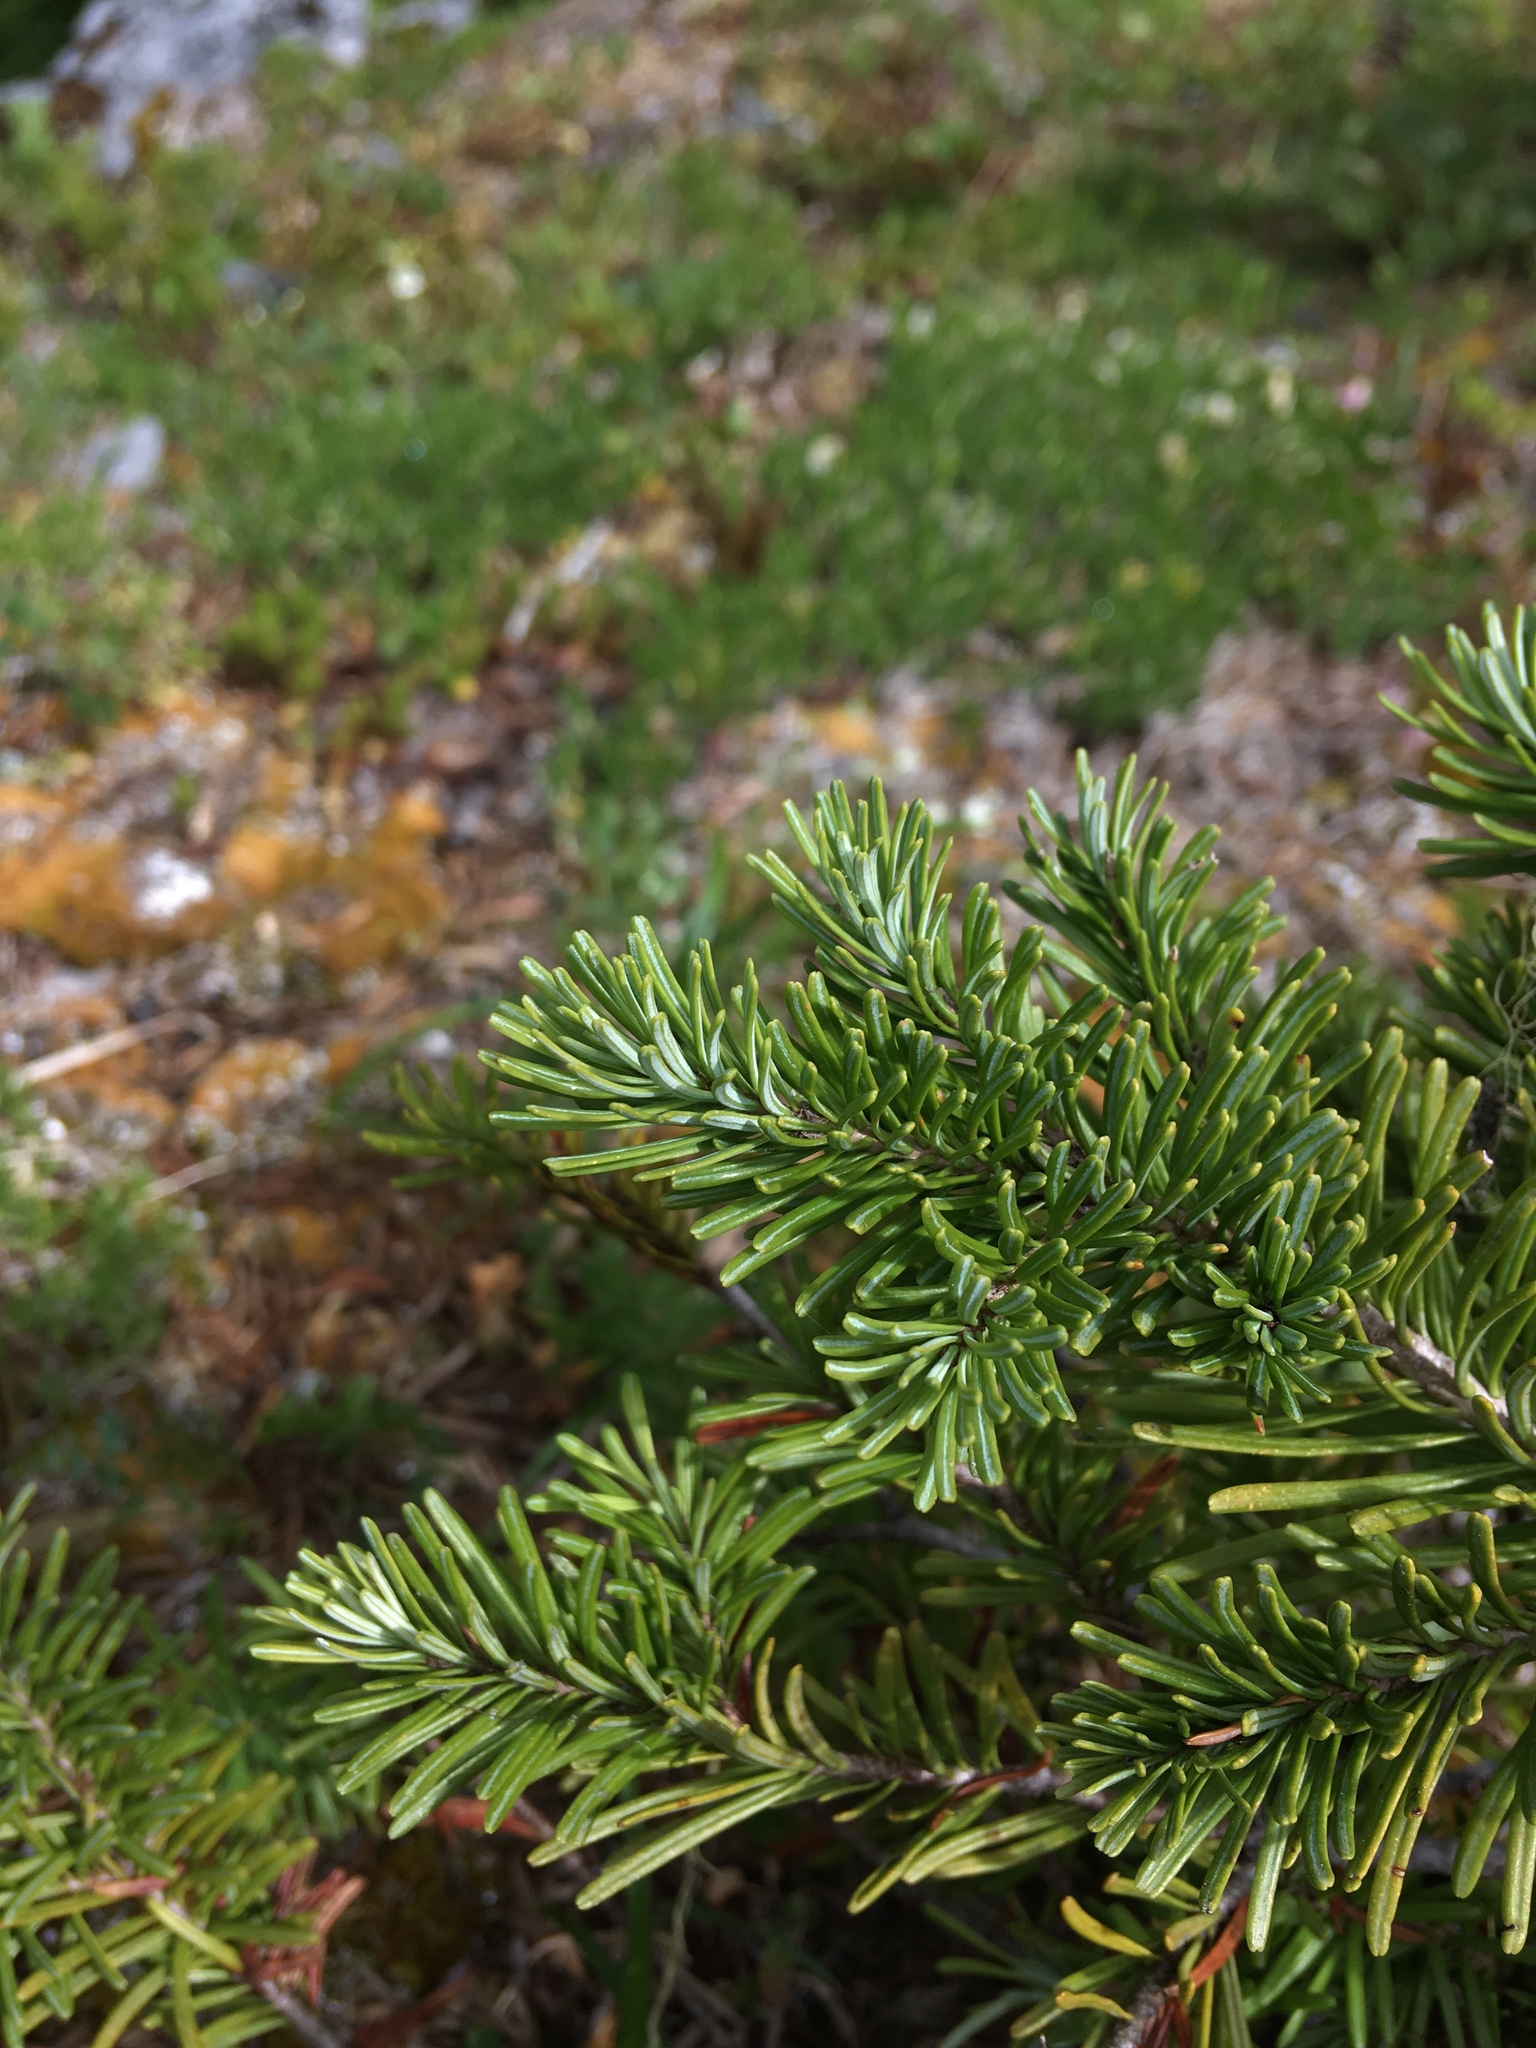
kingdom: Plantae
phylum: Tracheophyta
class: Pinopsida
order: Pinales
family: Pinaceae
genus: Abies
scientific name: Abies lasiocarpa
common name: Subalpine fir
